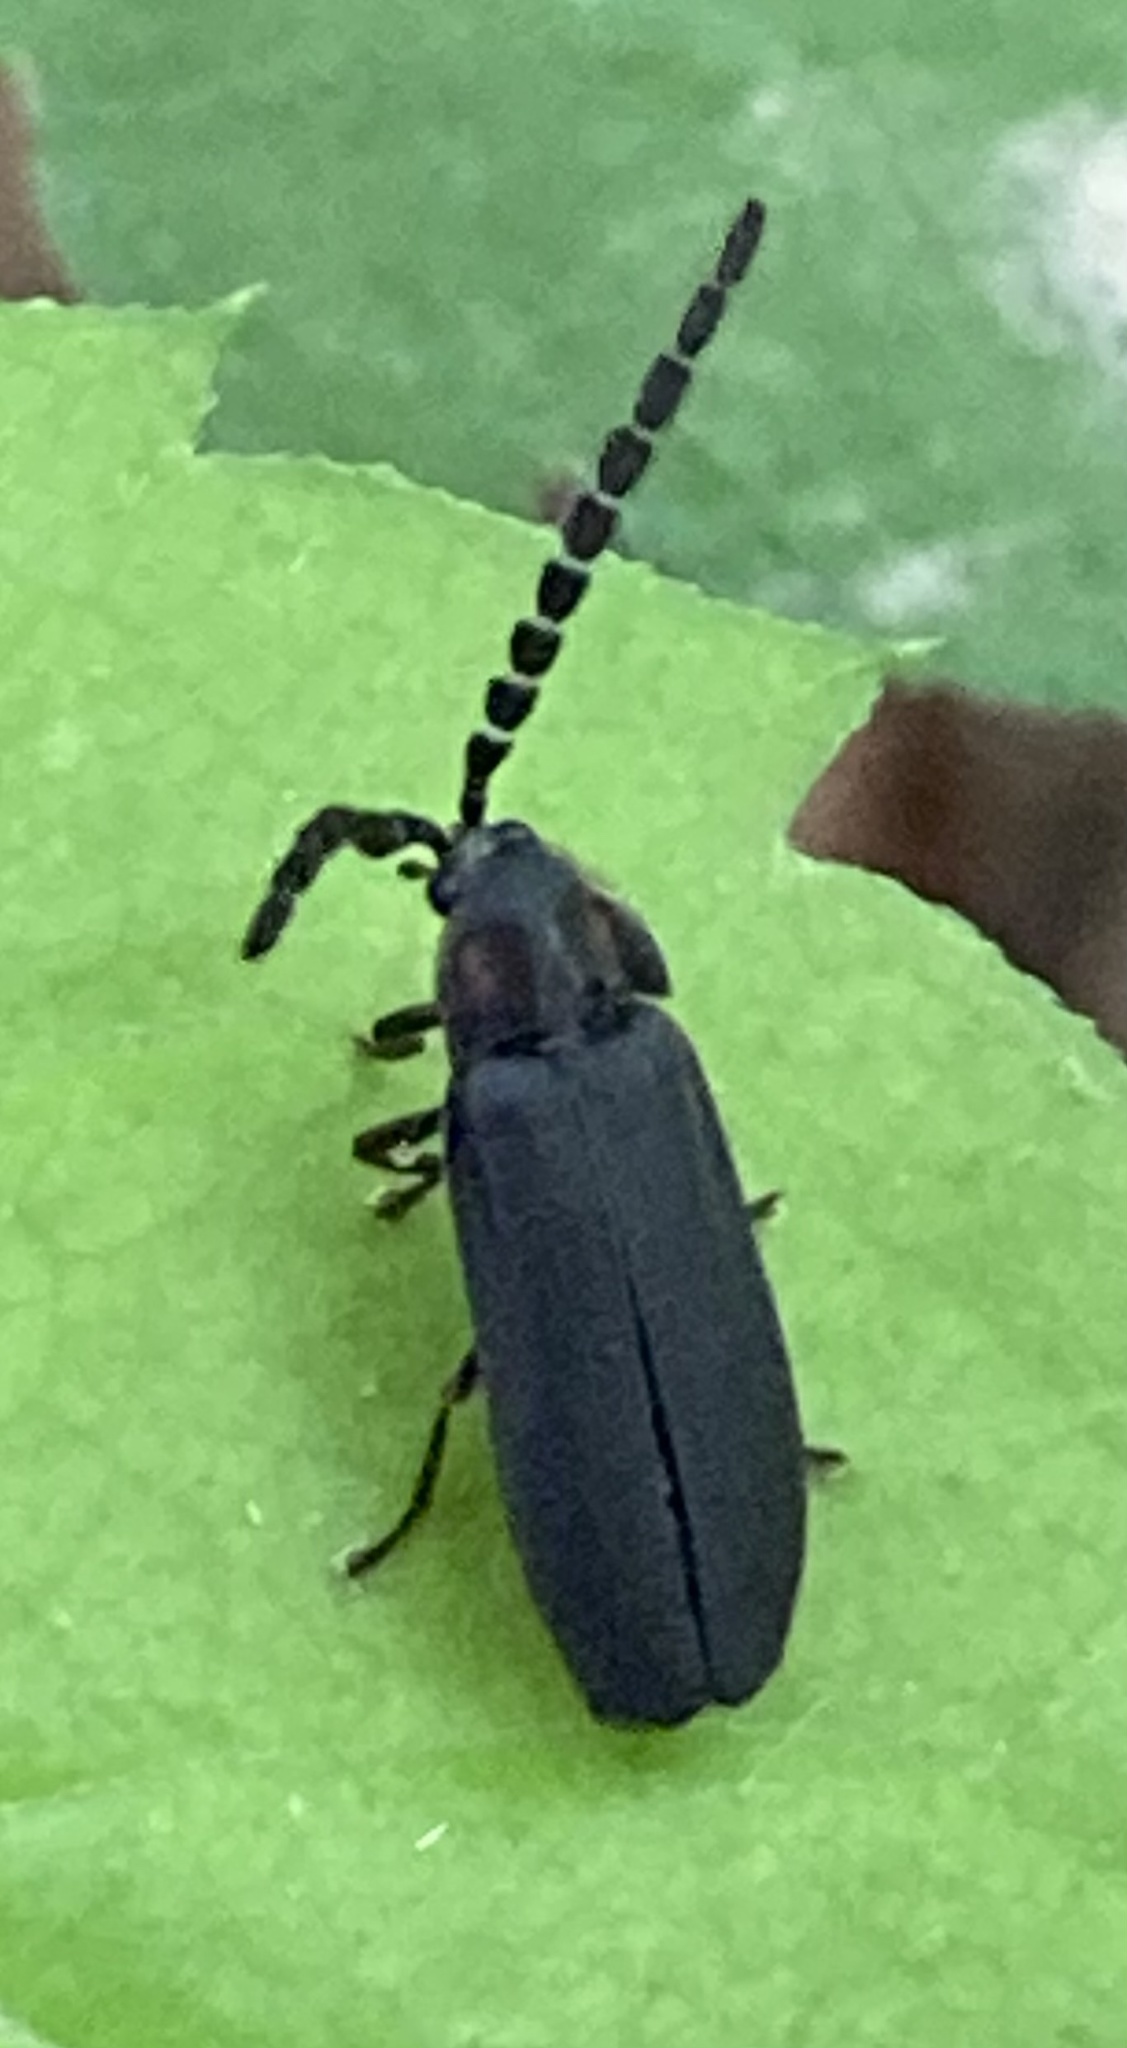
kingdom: Animalia
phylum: Arthropoda
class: Insecta
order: Coleoptera
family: Lampyridae
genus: Lucidota
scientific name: Lucidota atra
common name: Black firefly
